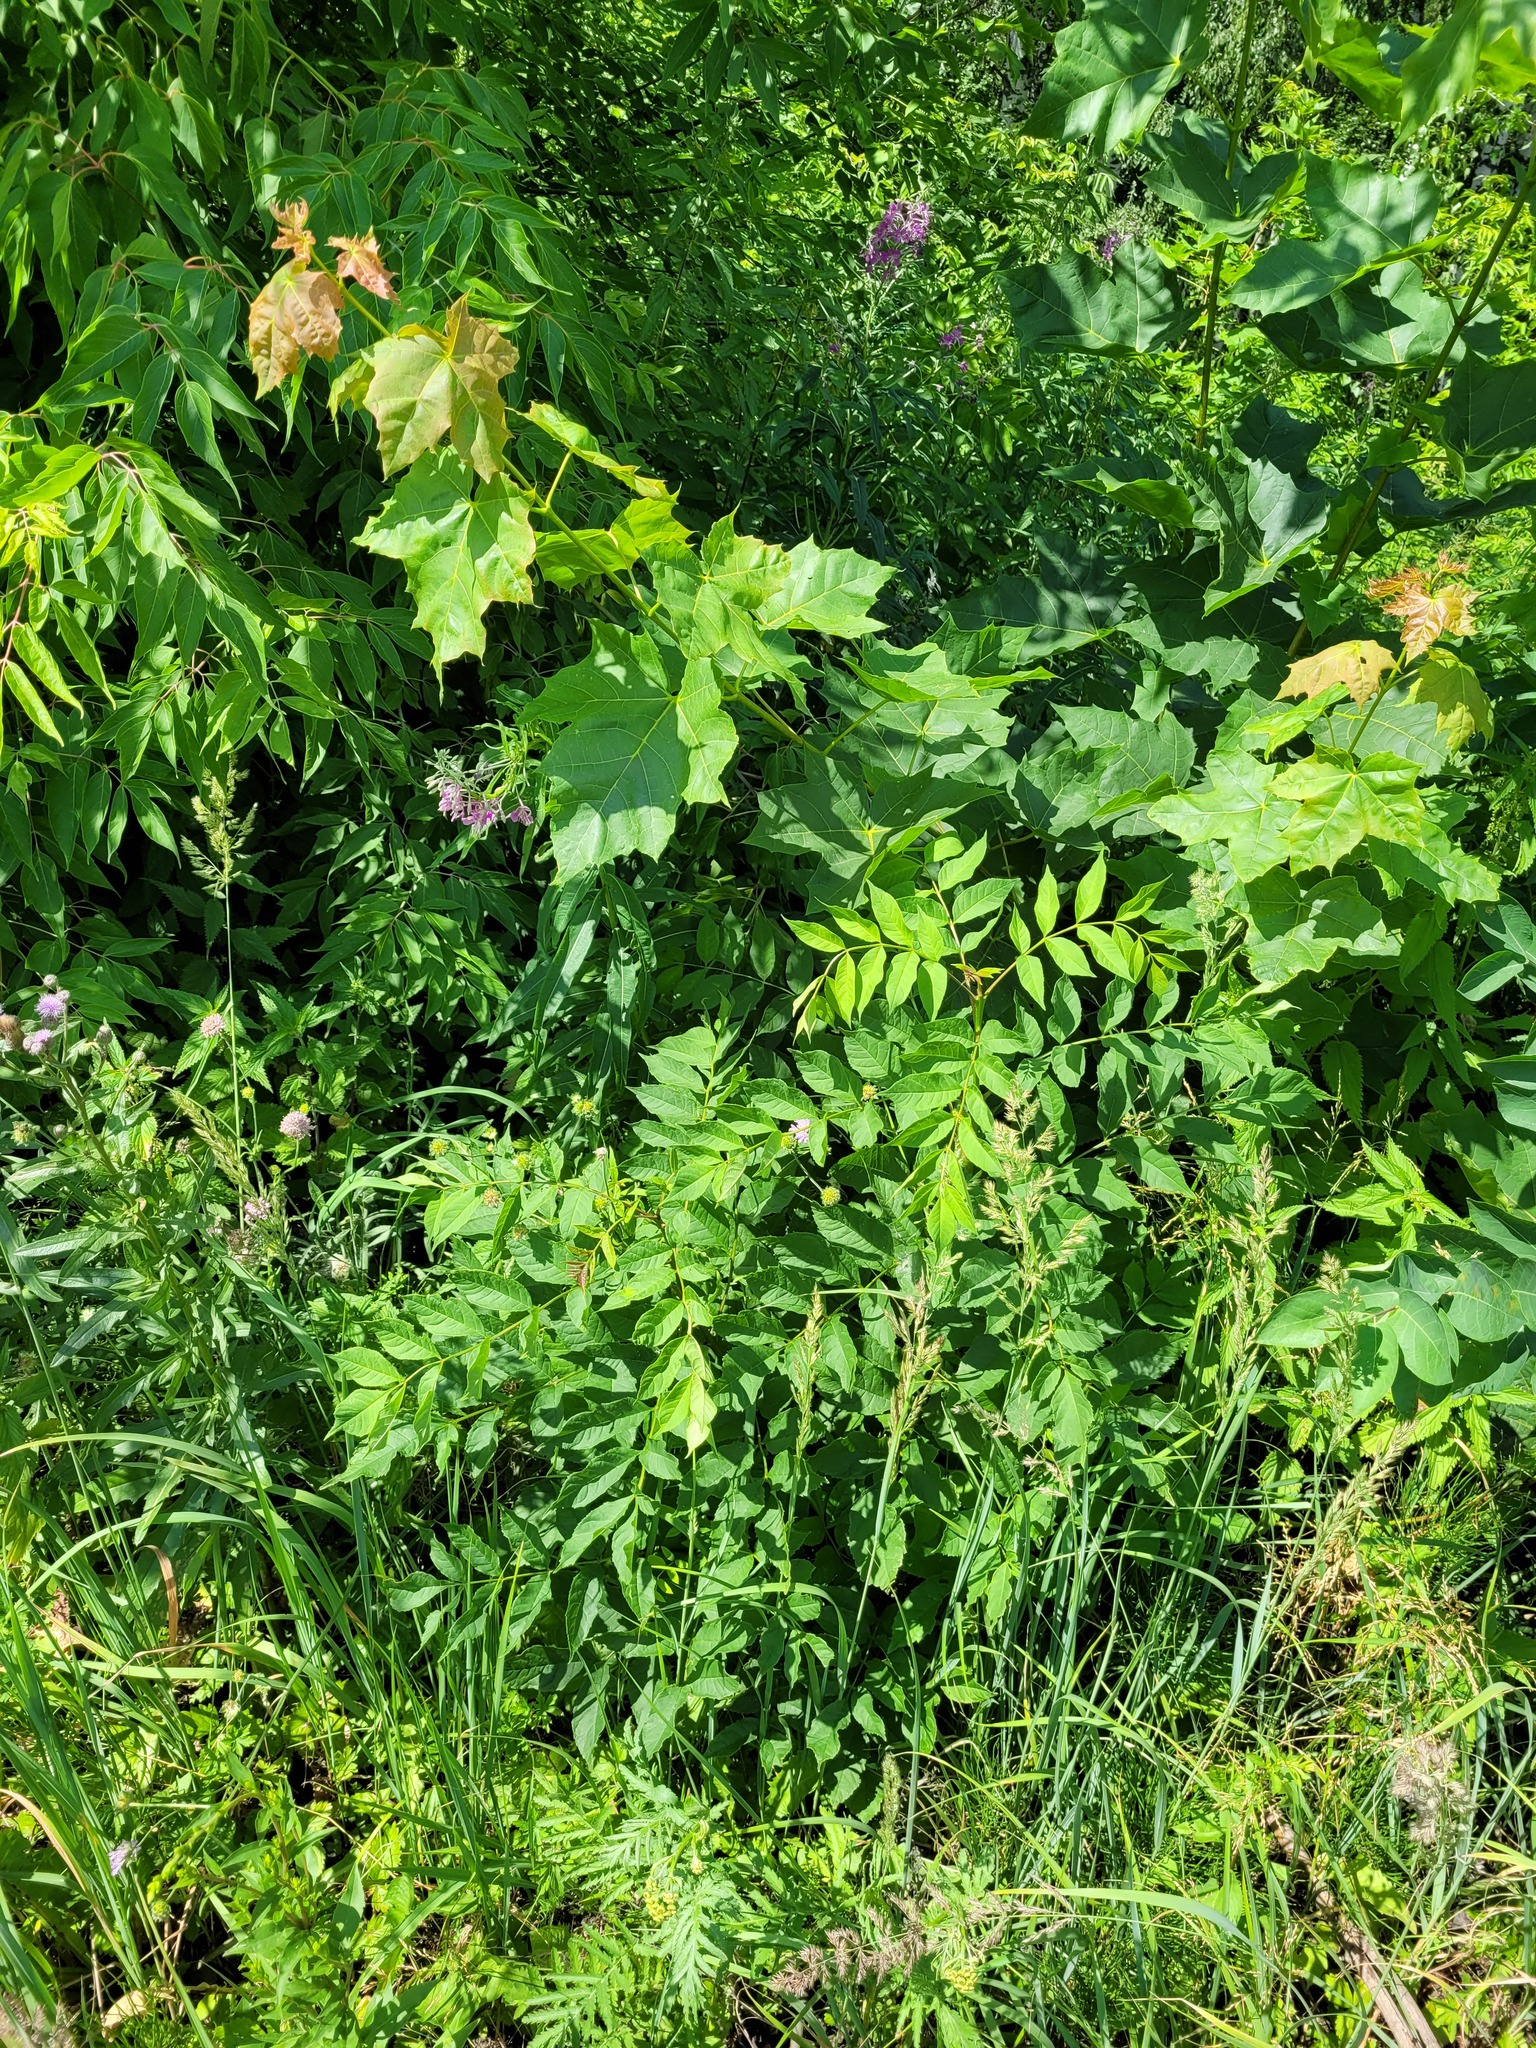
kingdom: Plantae
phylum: Tracheophyta
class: Magnoliopsida
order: Lamiales
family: Oleaceae
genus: Fraxinus
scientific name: Fraxinus excelsior
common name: European ash
